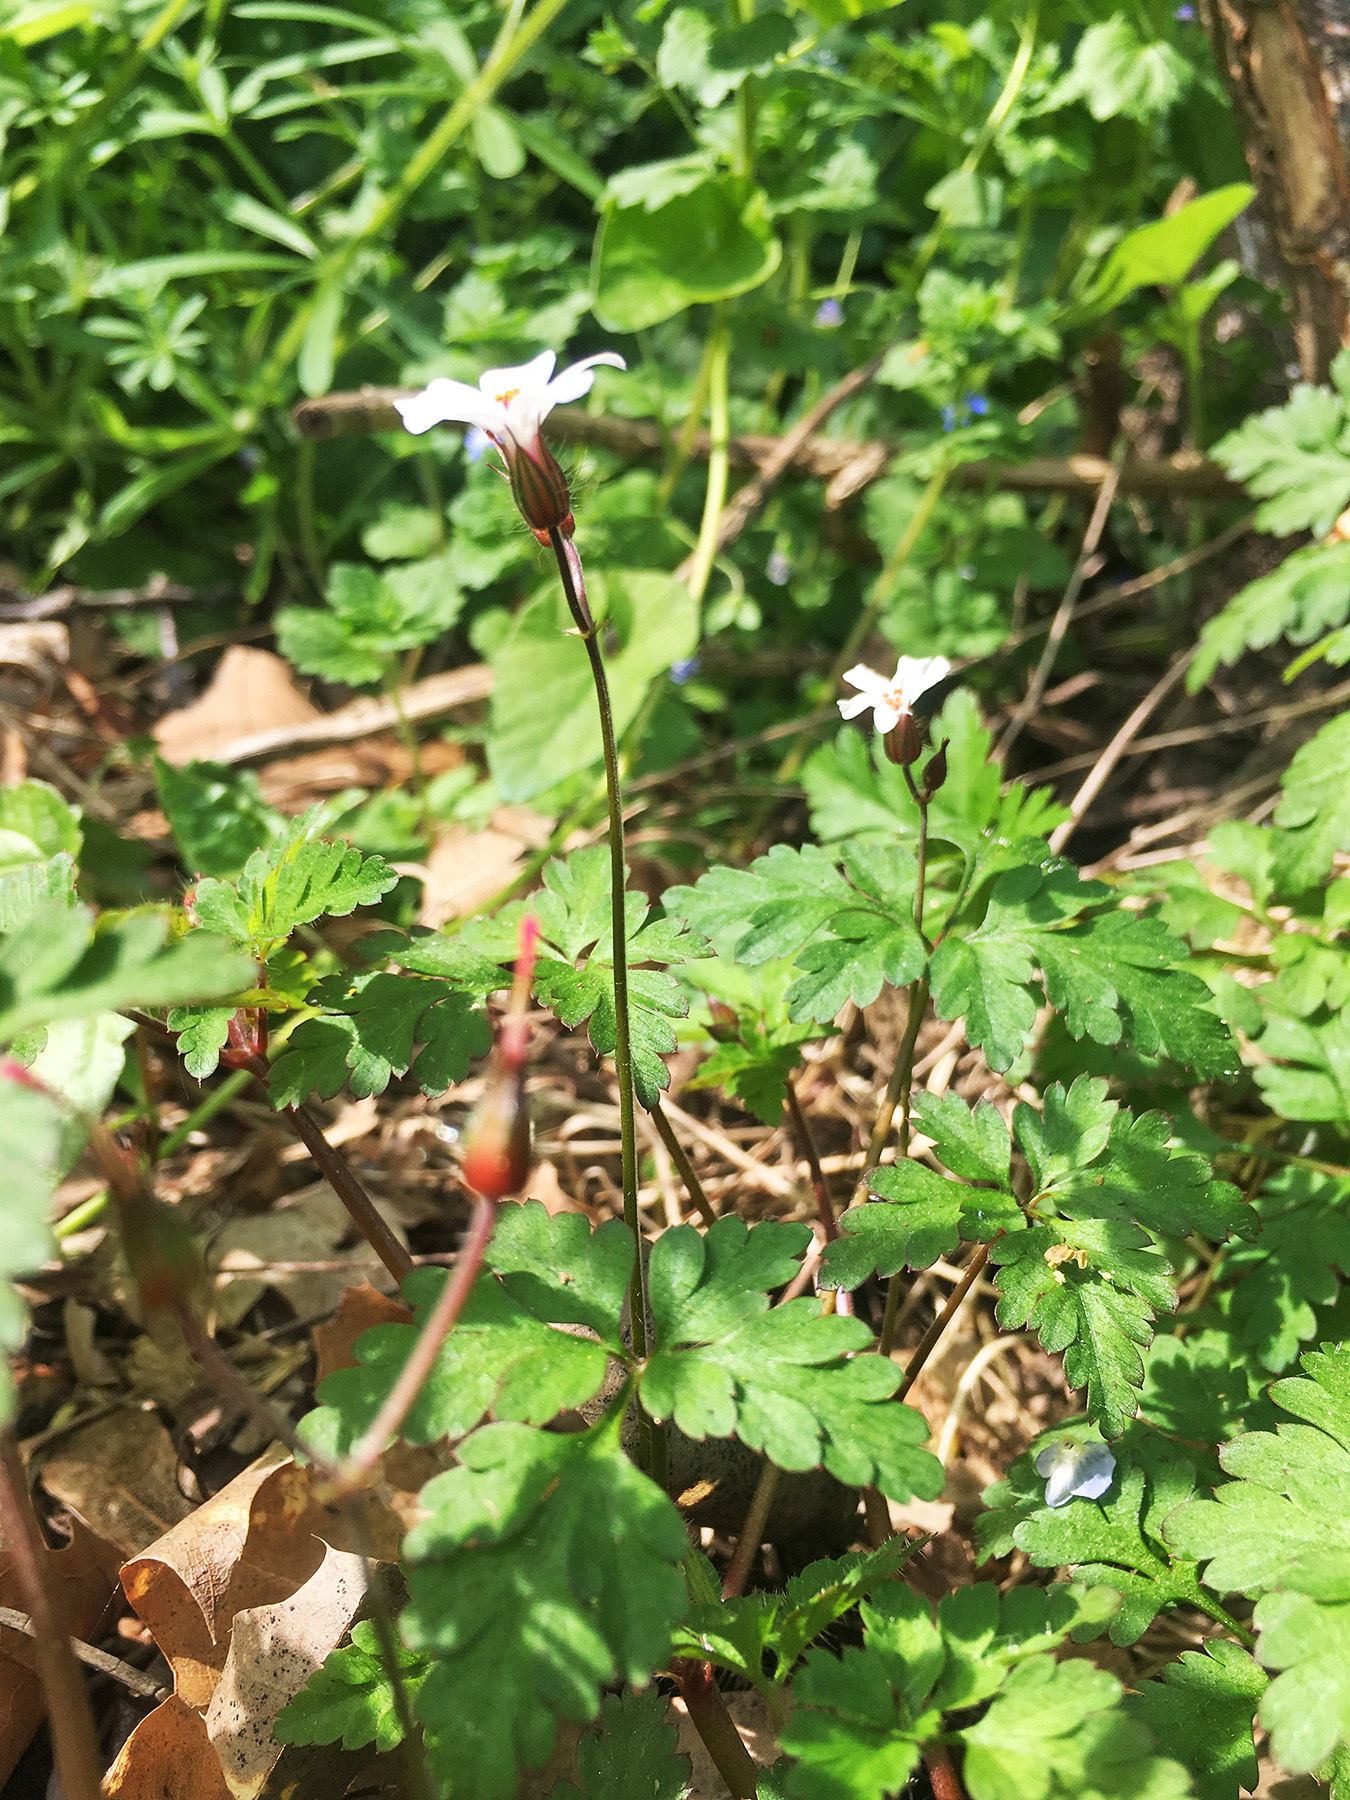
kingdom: Plantae
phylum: Tracheophyta
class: Magnoliopsida
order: Geraniales
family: Geraniaceae
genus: Geranium
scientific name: Geranium robertianum
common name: Herb-robert
